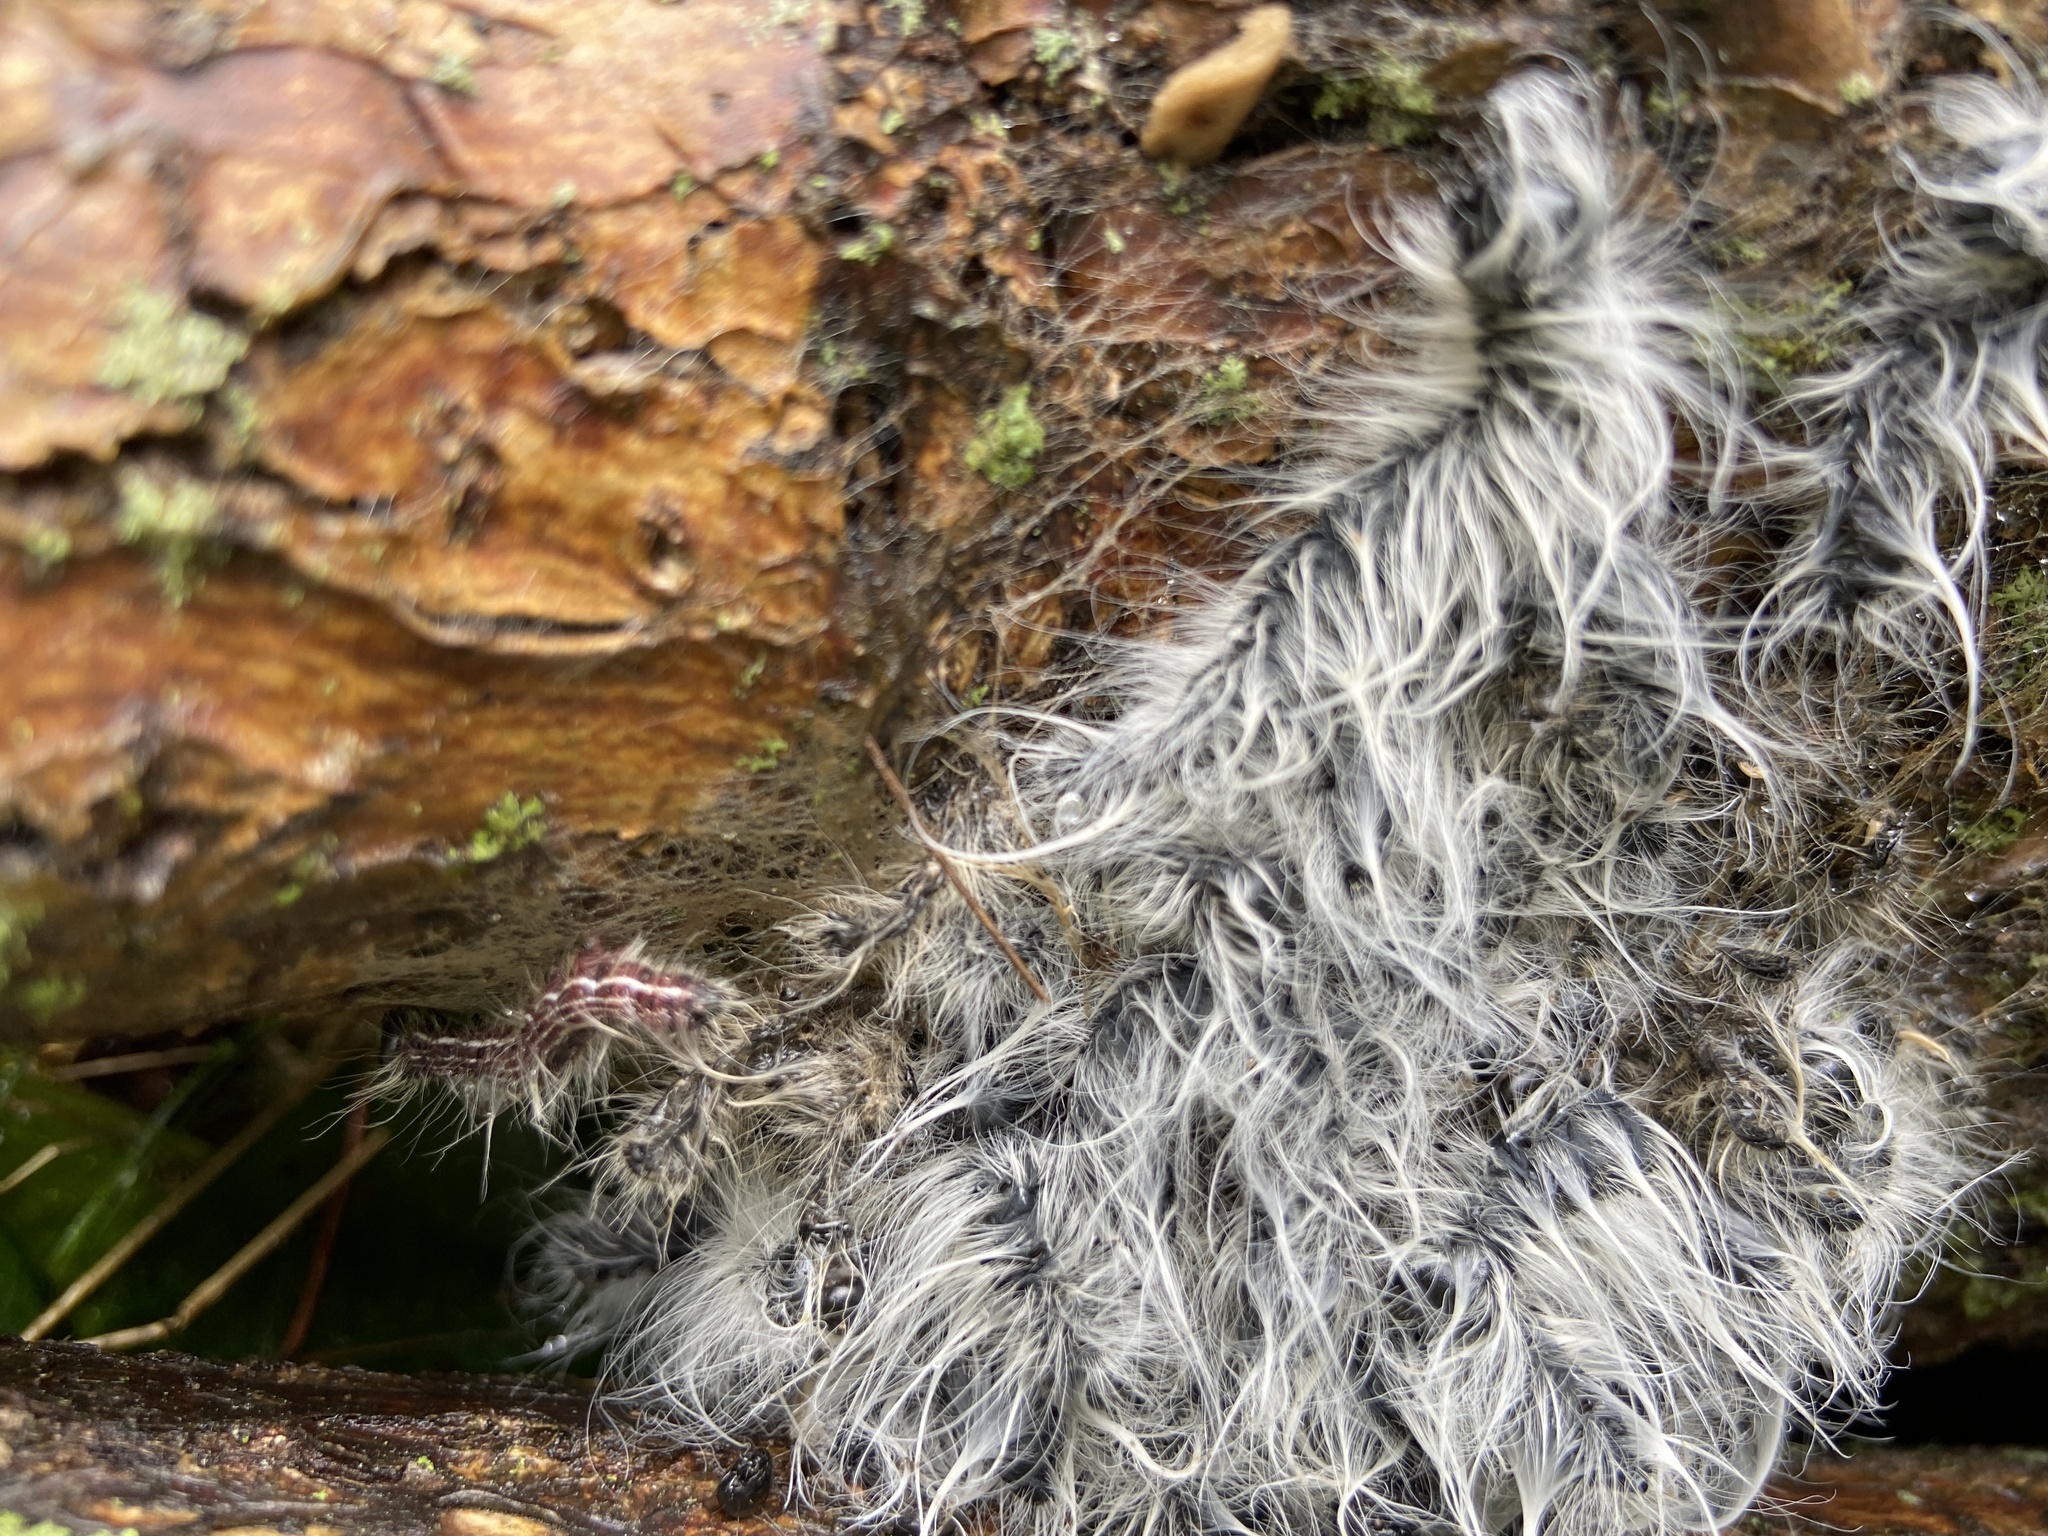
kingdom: Animalia
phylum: Arthropoda
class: Insecta
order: Lepidoptera
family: Notodontidae
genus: Datana
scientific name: Datana integerrima
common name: Walnut caterpillar
